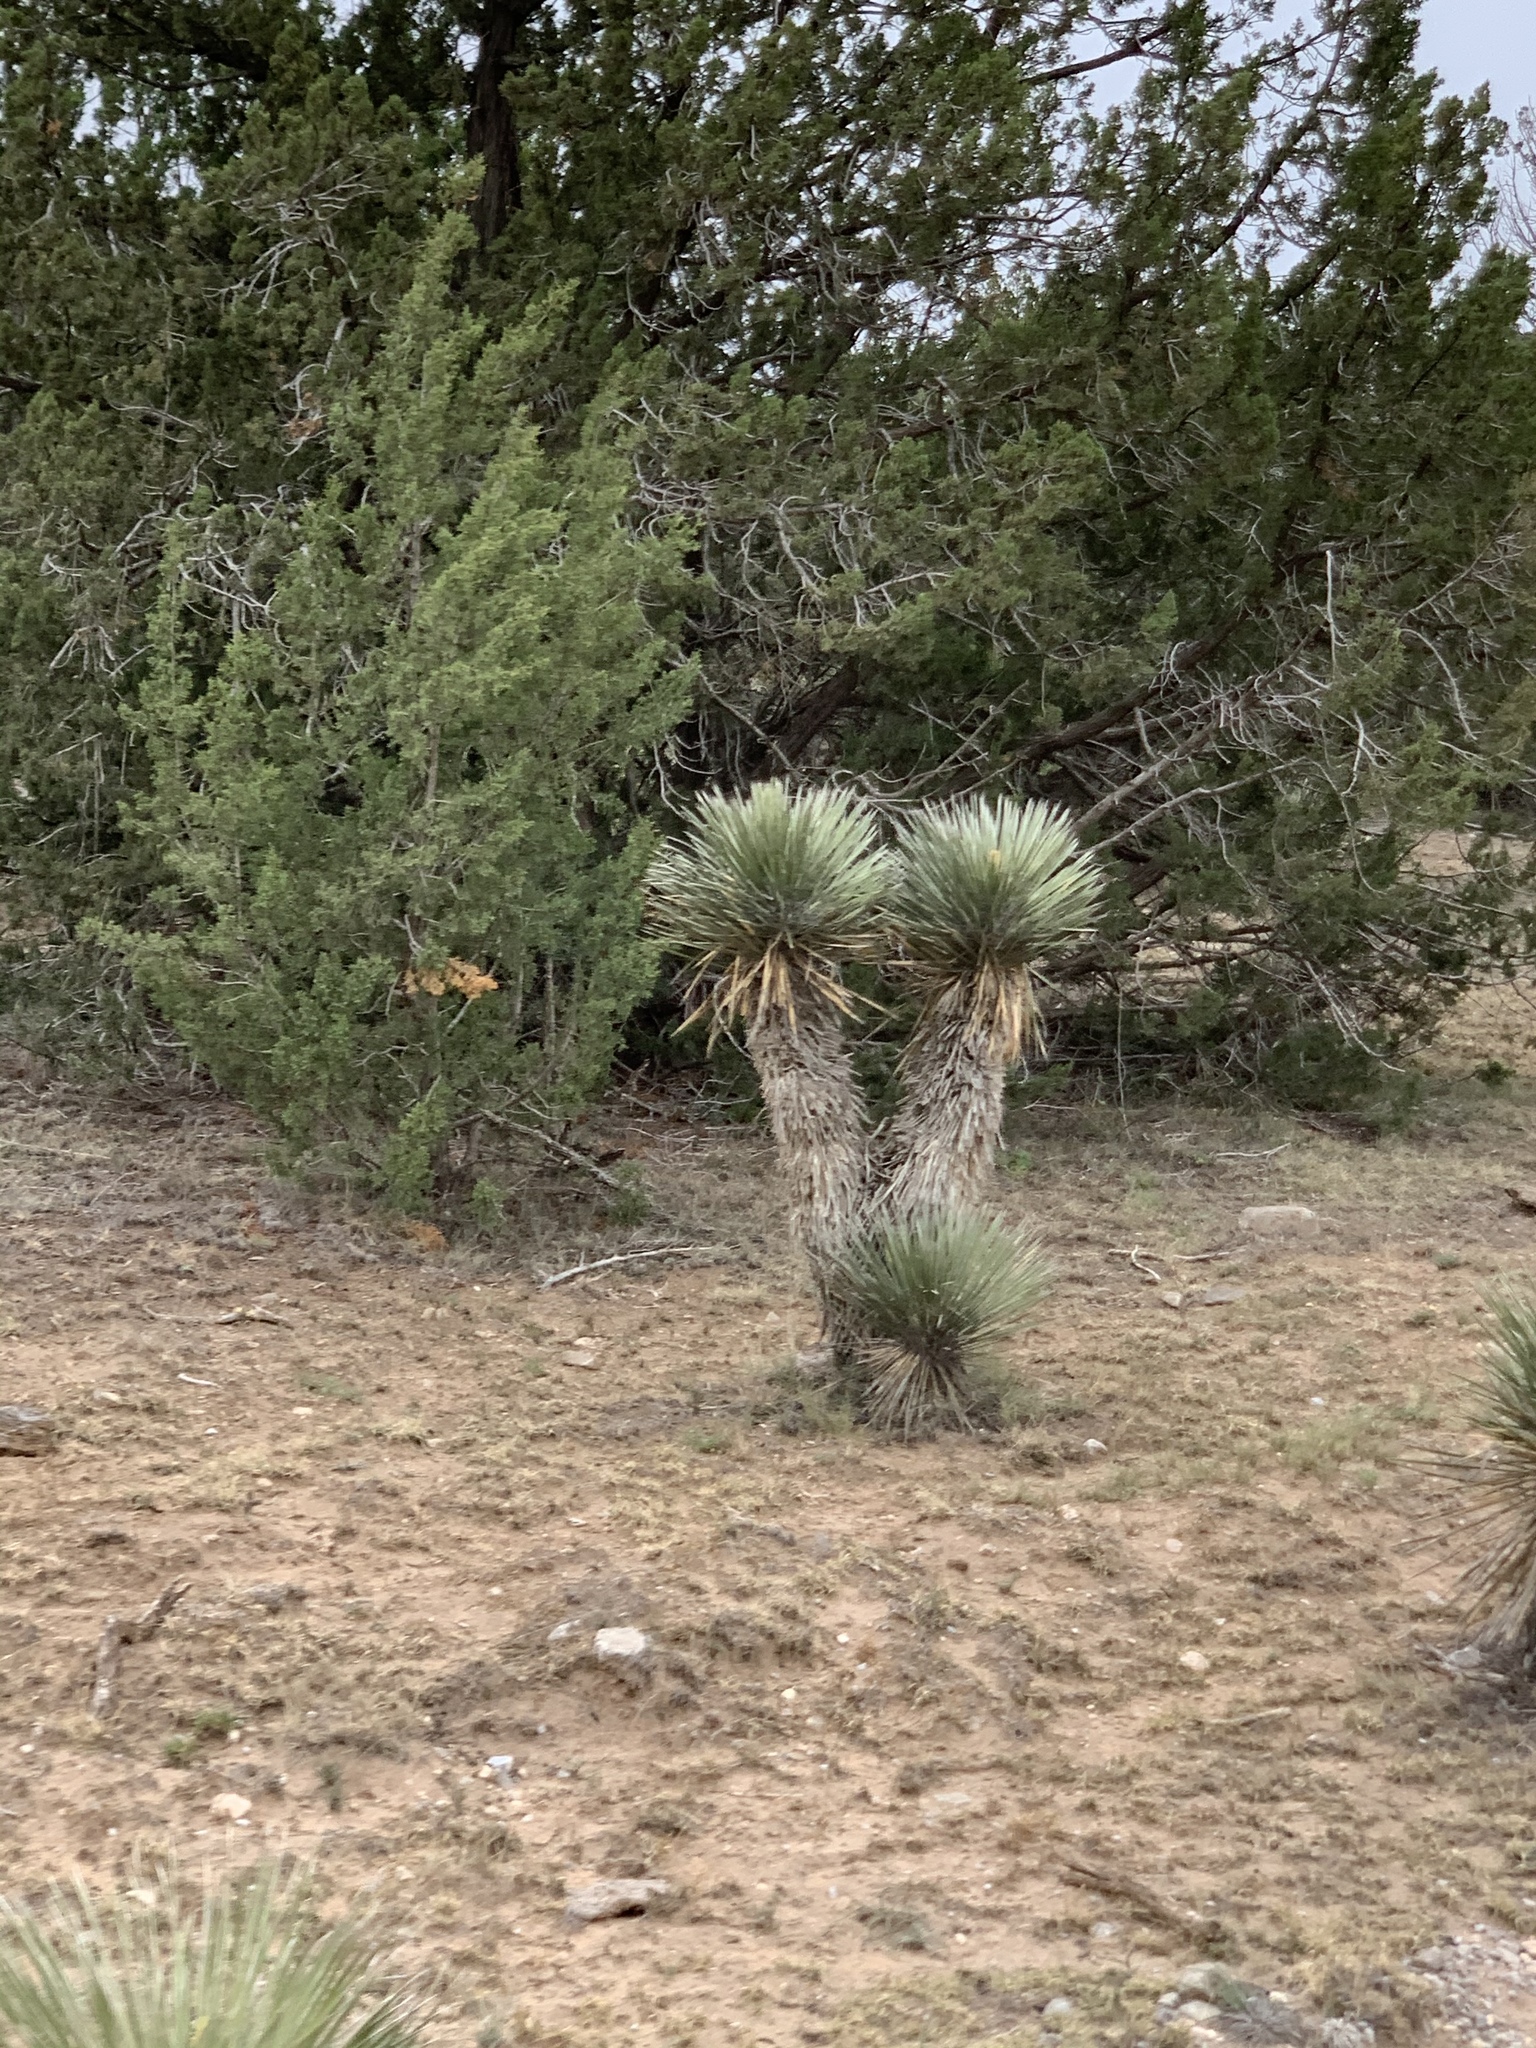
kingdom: Plantae
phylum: Tracheophyta
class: Liliopsida
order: Asparagales
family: Asparagaceae
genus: Yucca
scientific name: Yucca elata
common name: Palmella
